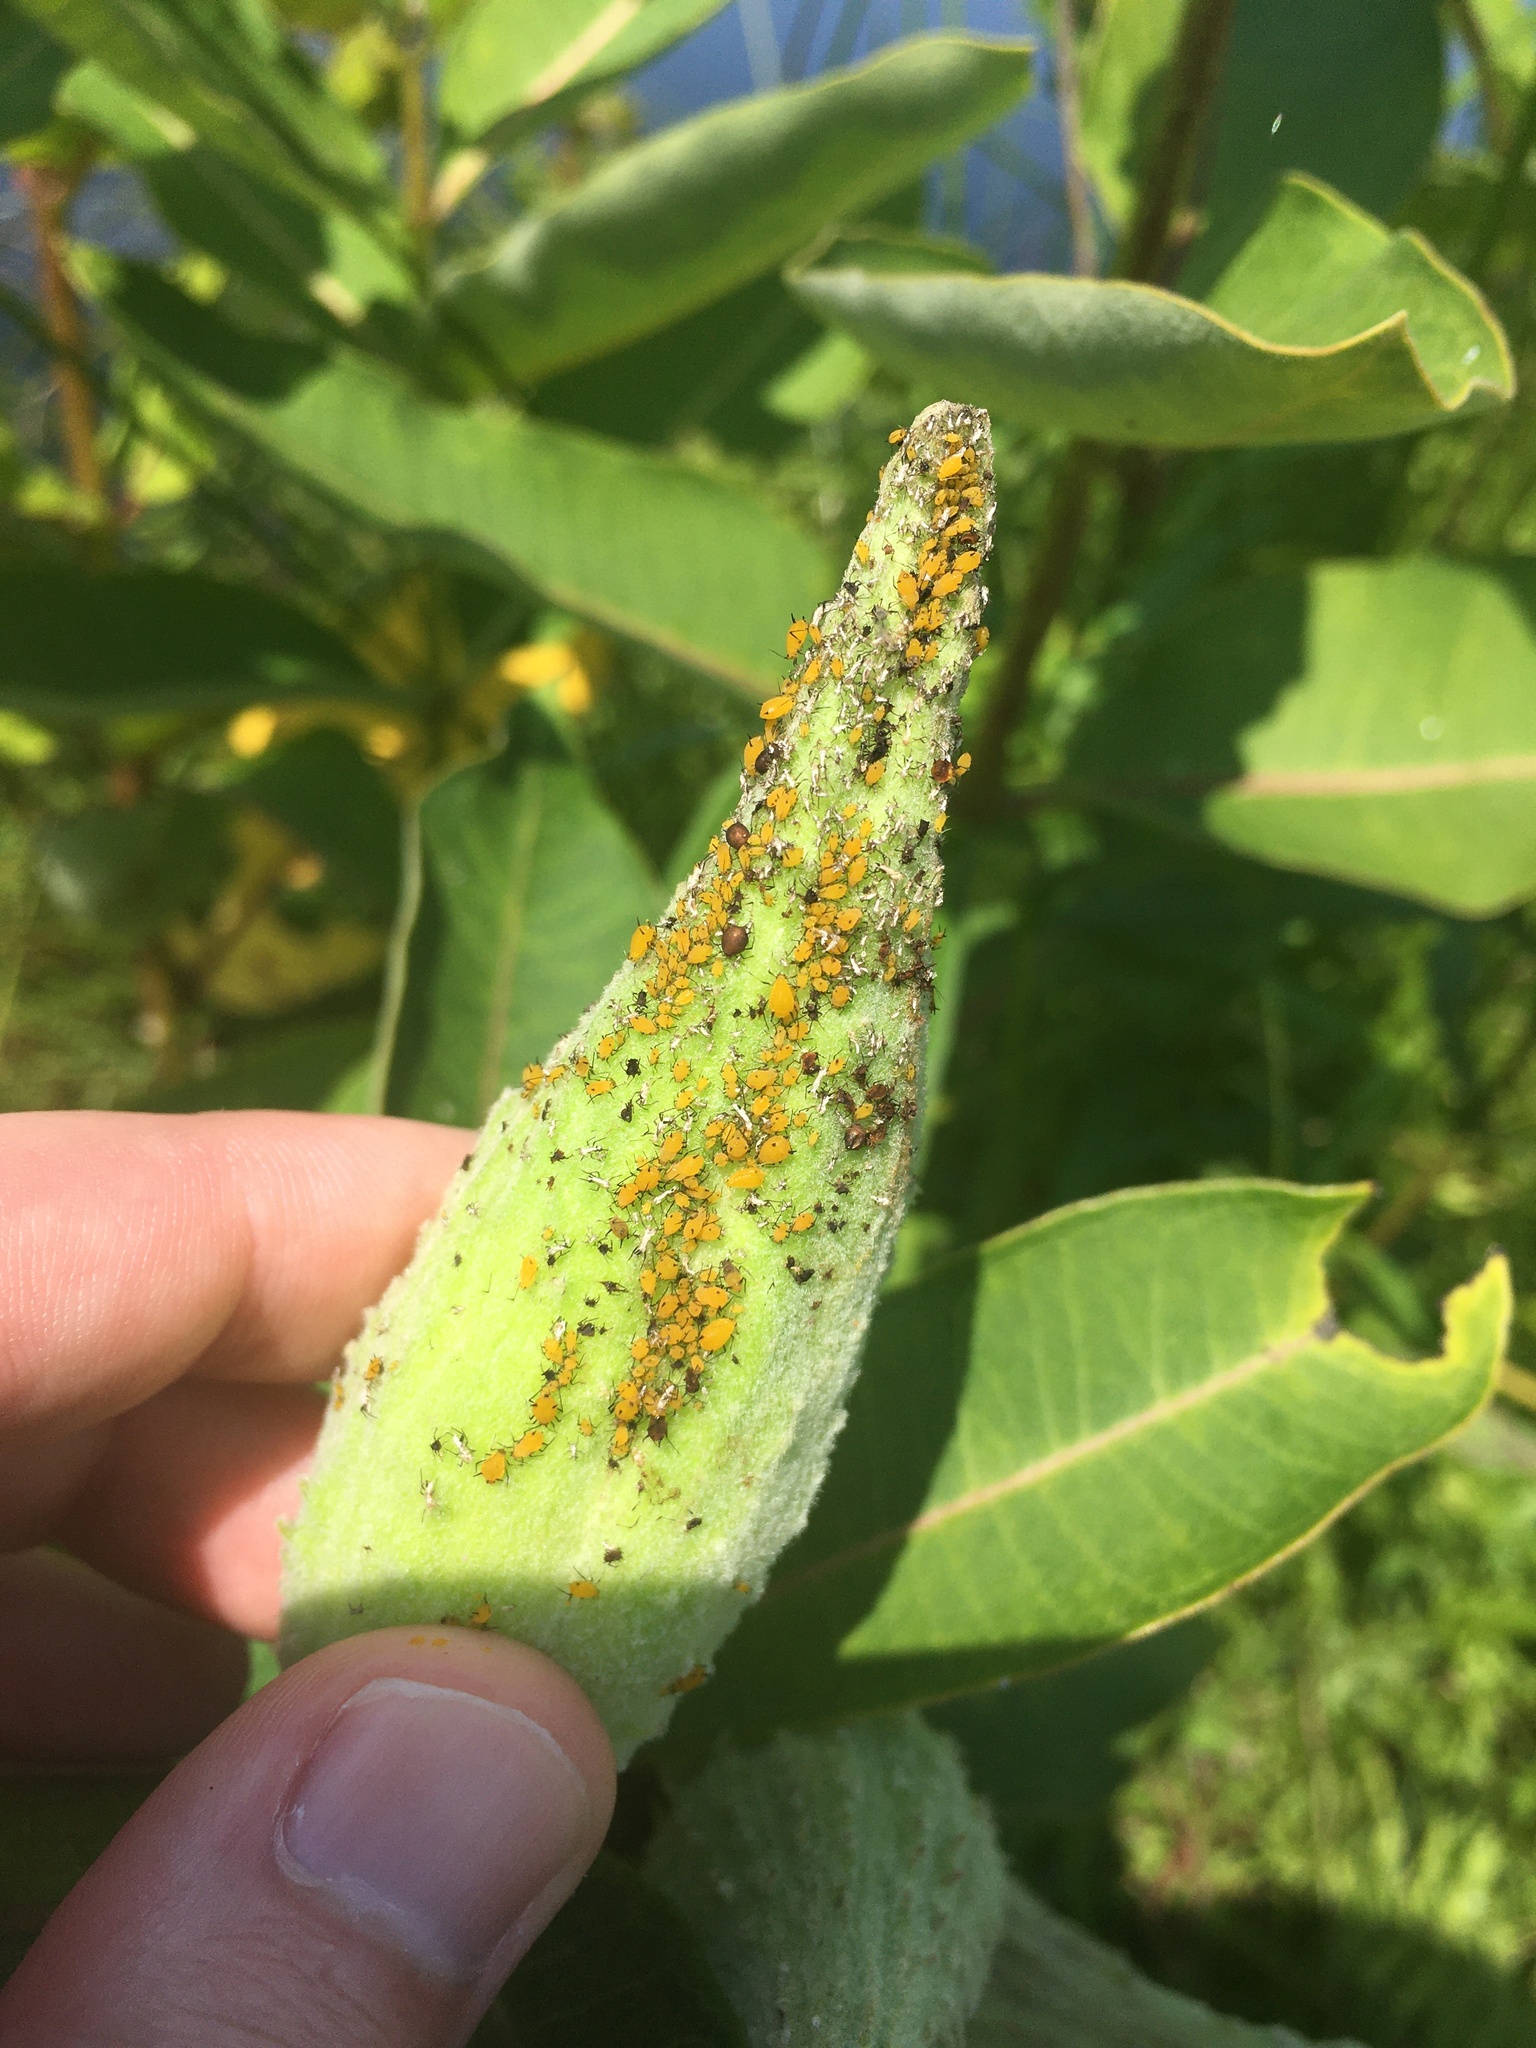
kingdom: Animalia
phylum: Arthropoda
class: Insecta
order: Hemiptera
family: Aphididae
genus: Aphis
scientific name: Aphis nerii
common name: Oleander aphid
